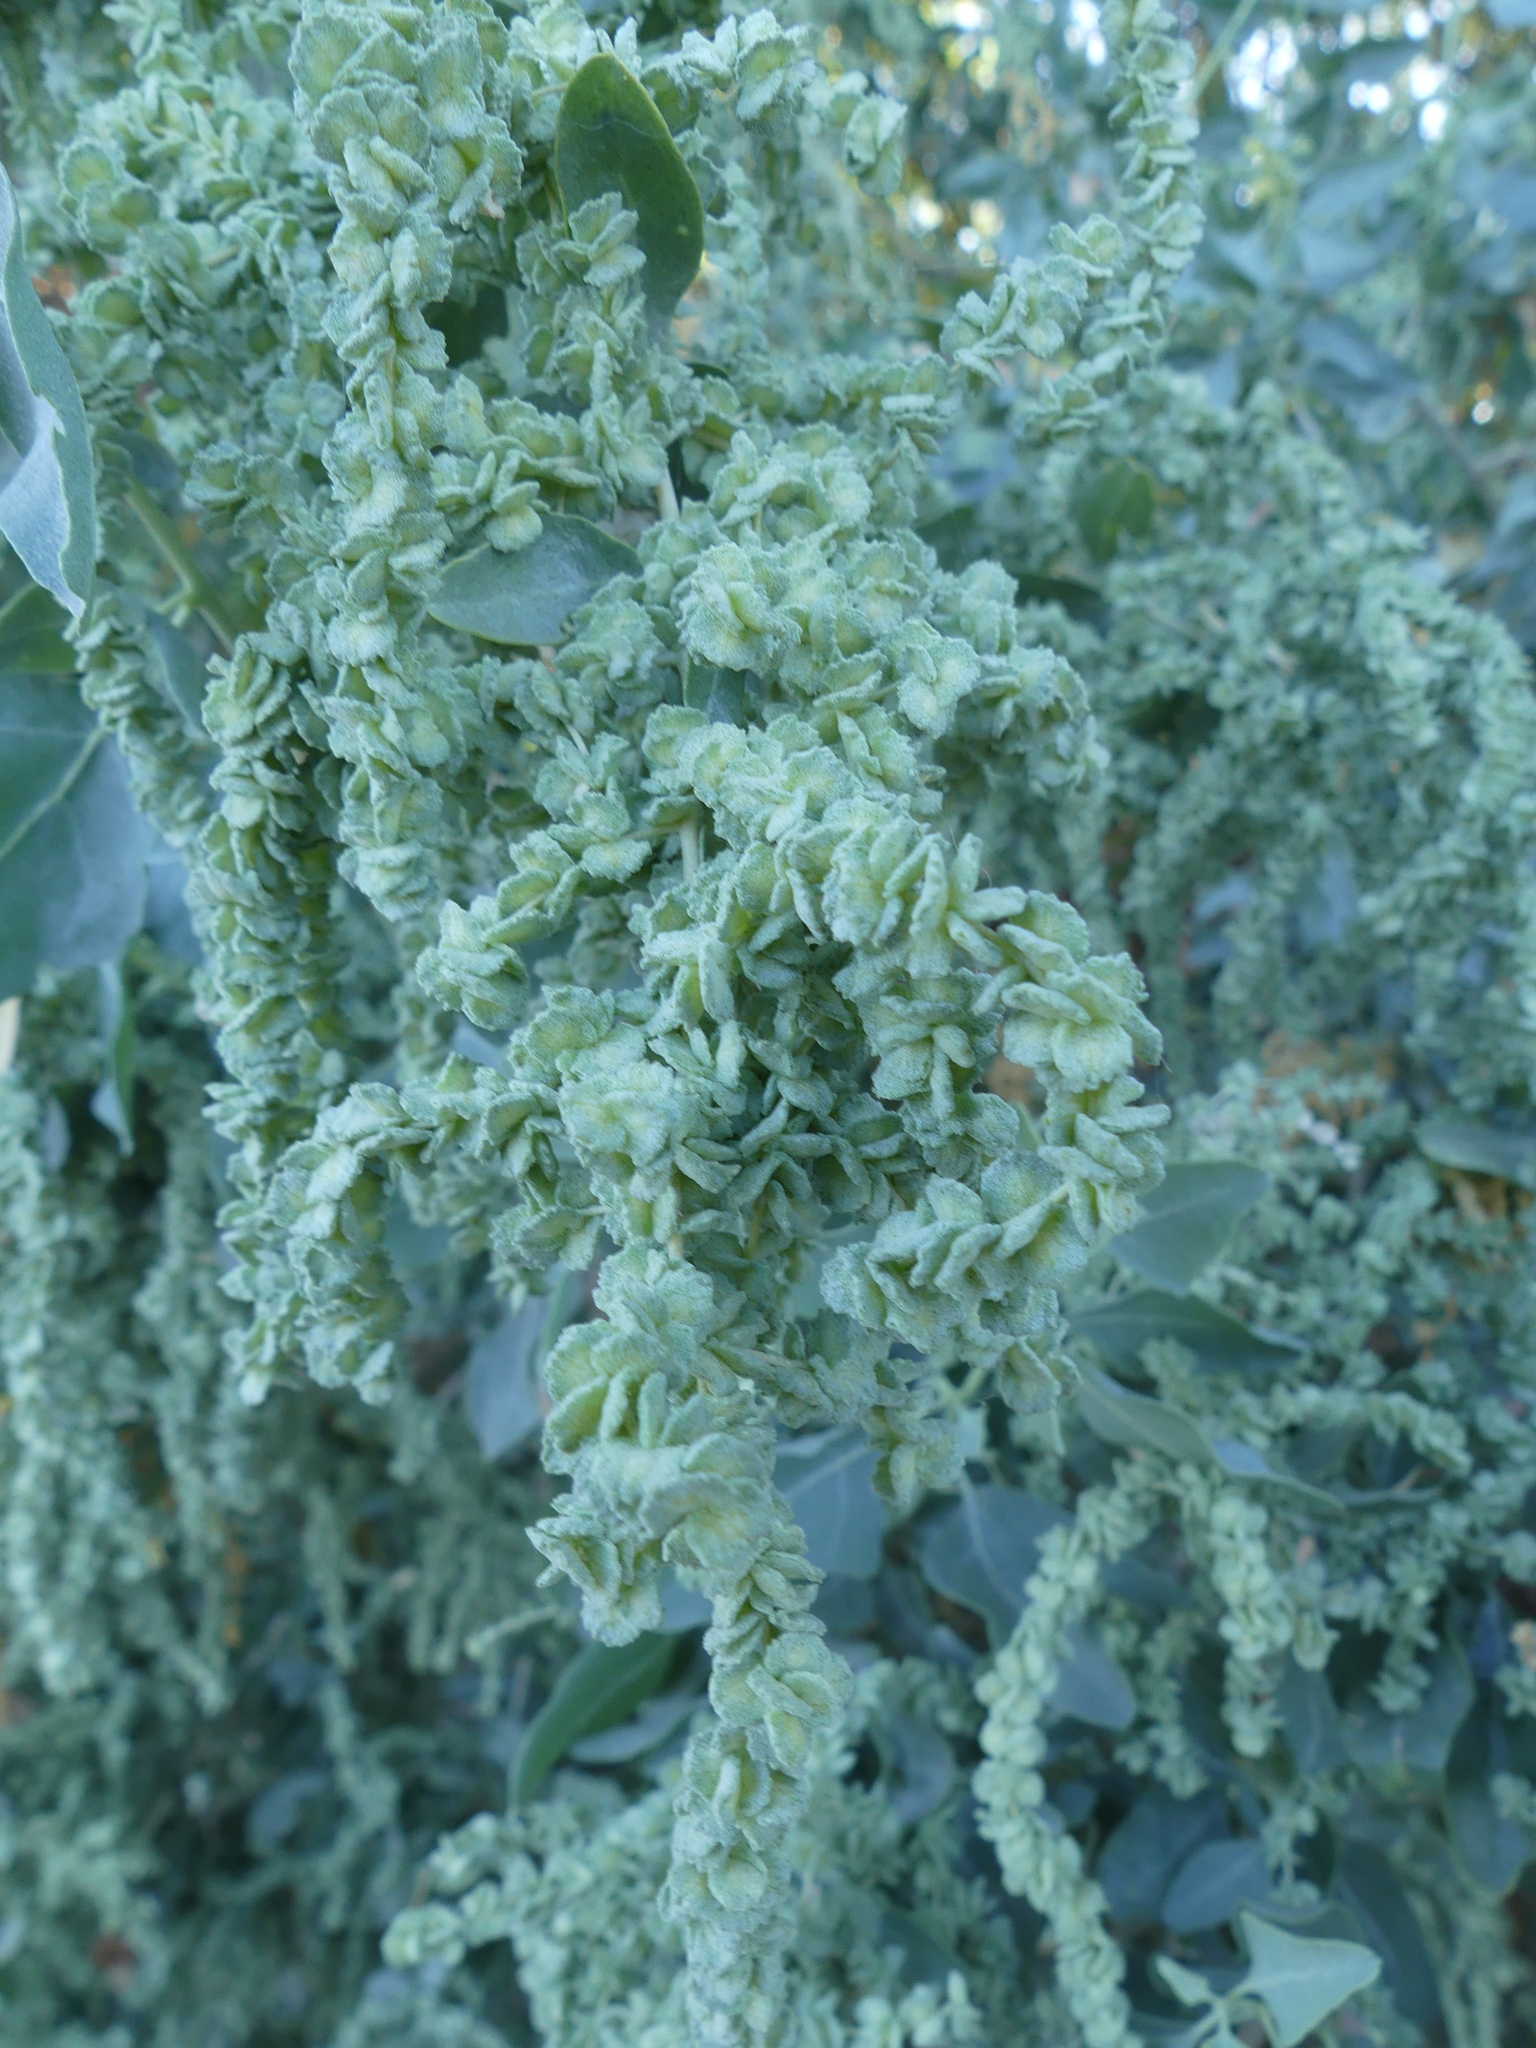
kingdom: Plantae
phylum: Tracheophyta
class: Magnoliopsida
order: Caryophyllales
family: Amaranthaceae
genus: Atriplex
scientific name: Atriplex lentiformis
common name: Big saltbush
